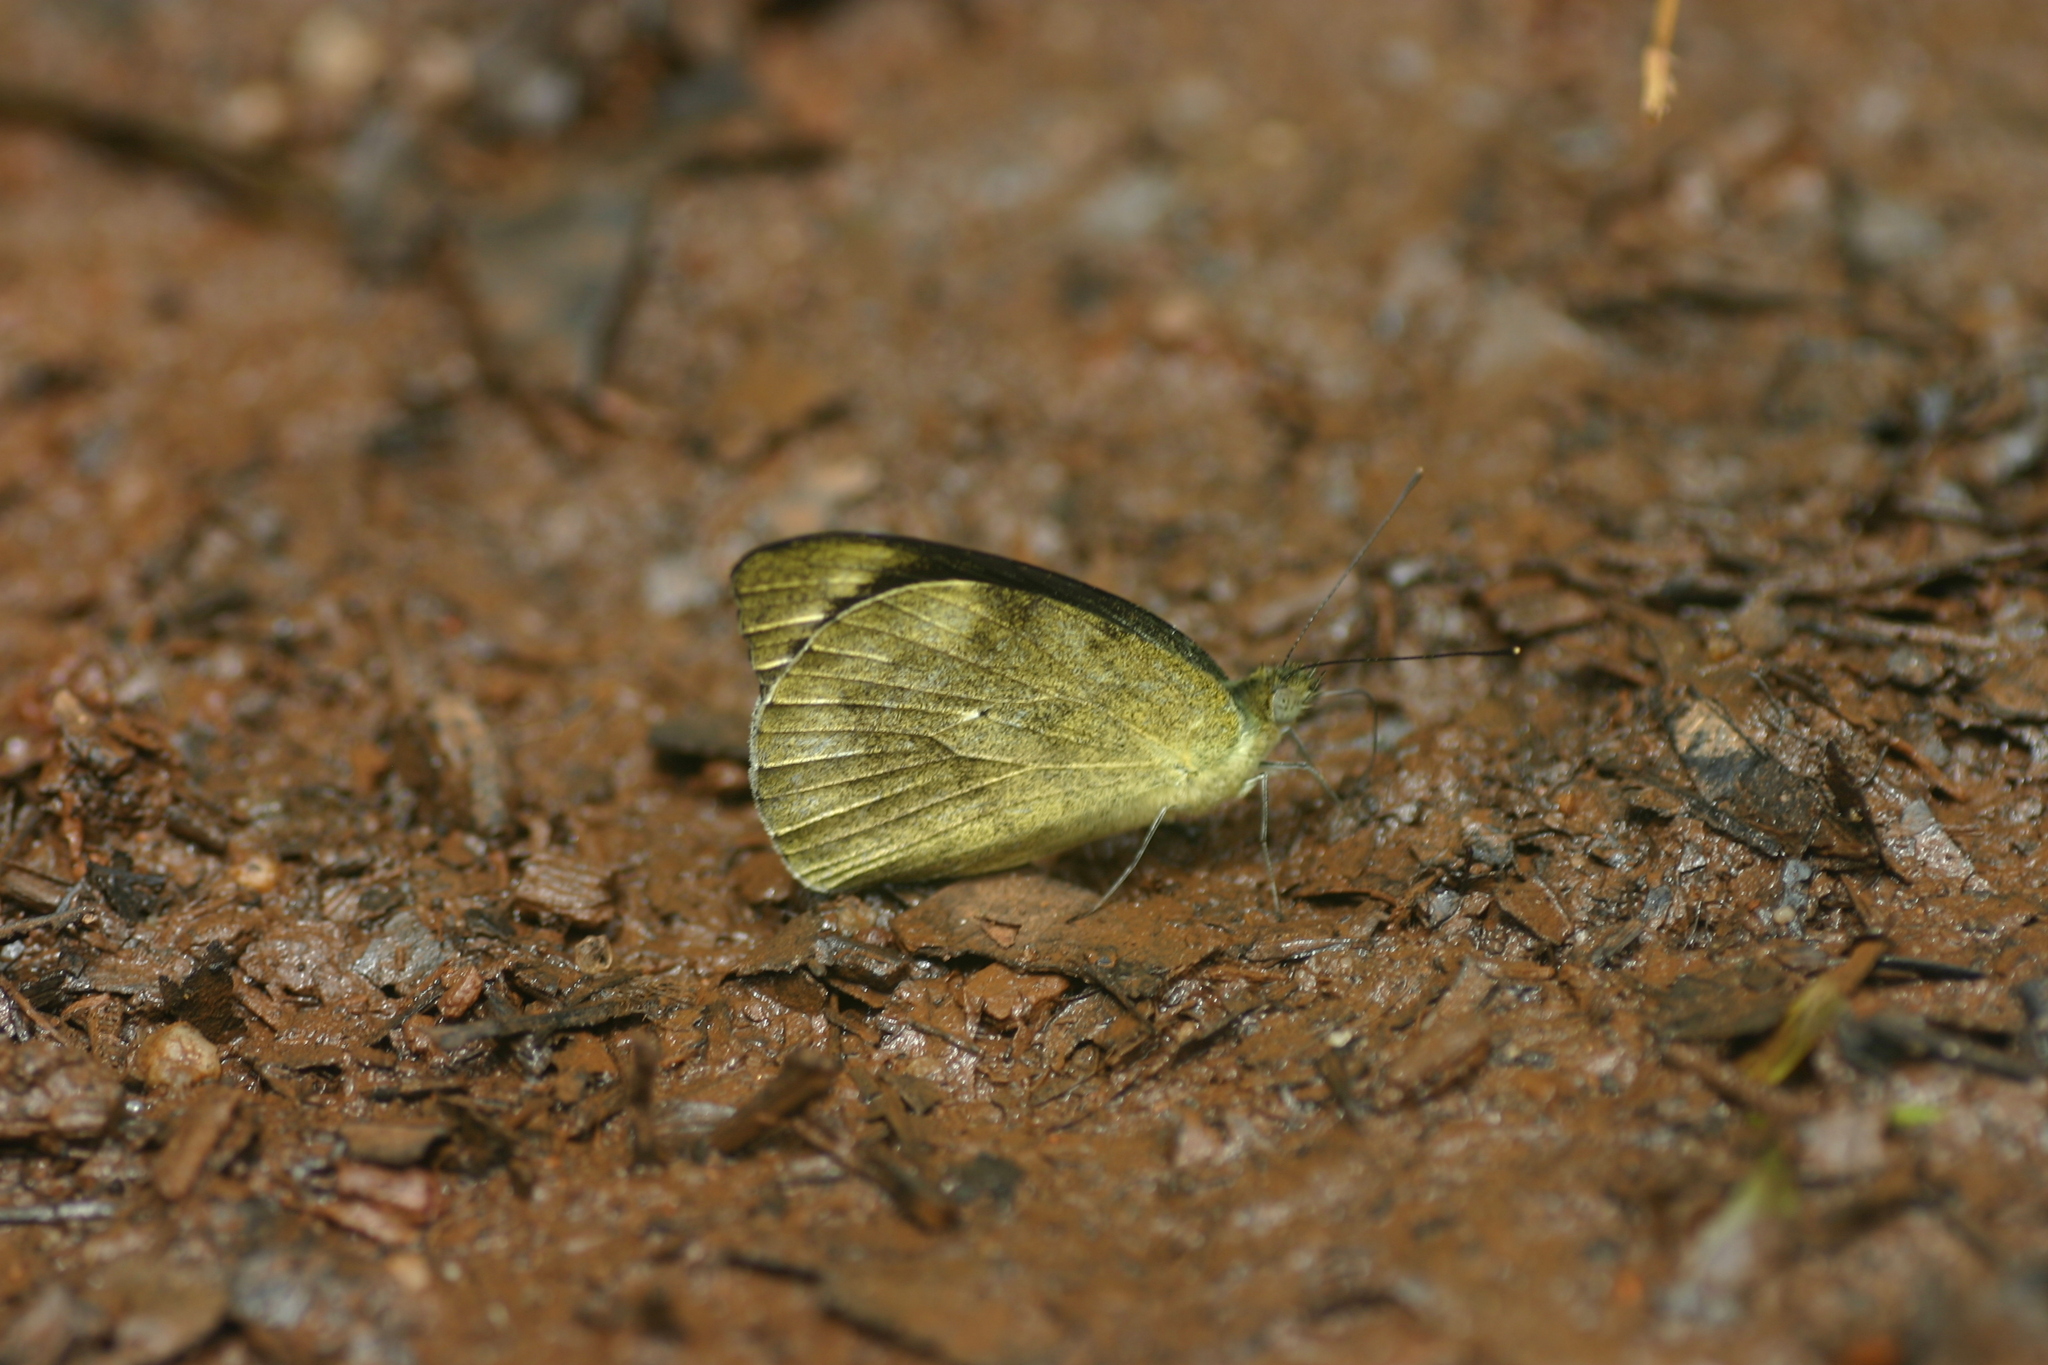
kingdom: Animalia
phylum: Arthropoda
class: Insecta
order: Lepidoptera
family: Pieridae
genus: Appias
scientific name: Appias indra
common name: Plain puffin
